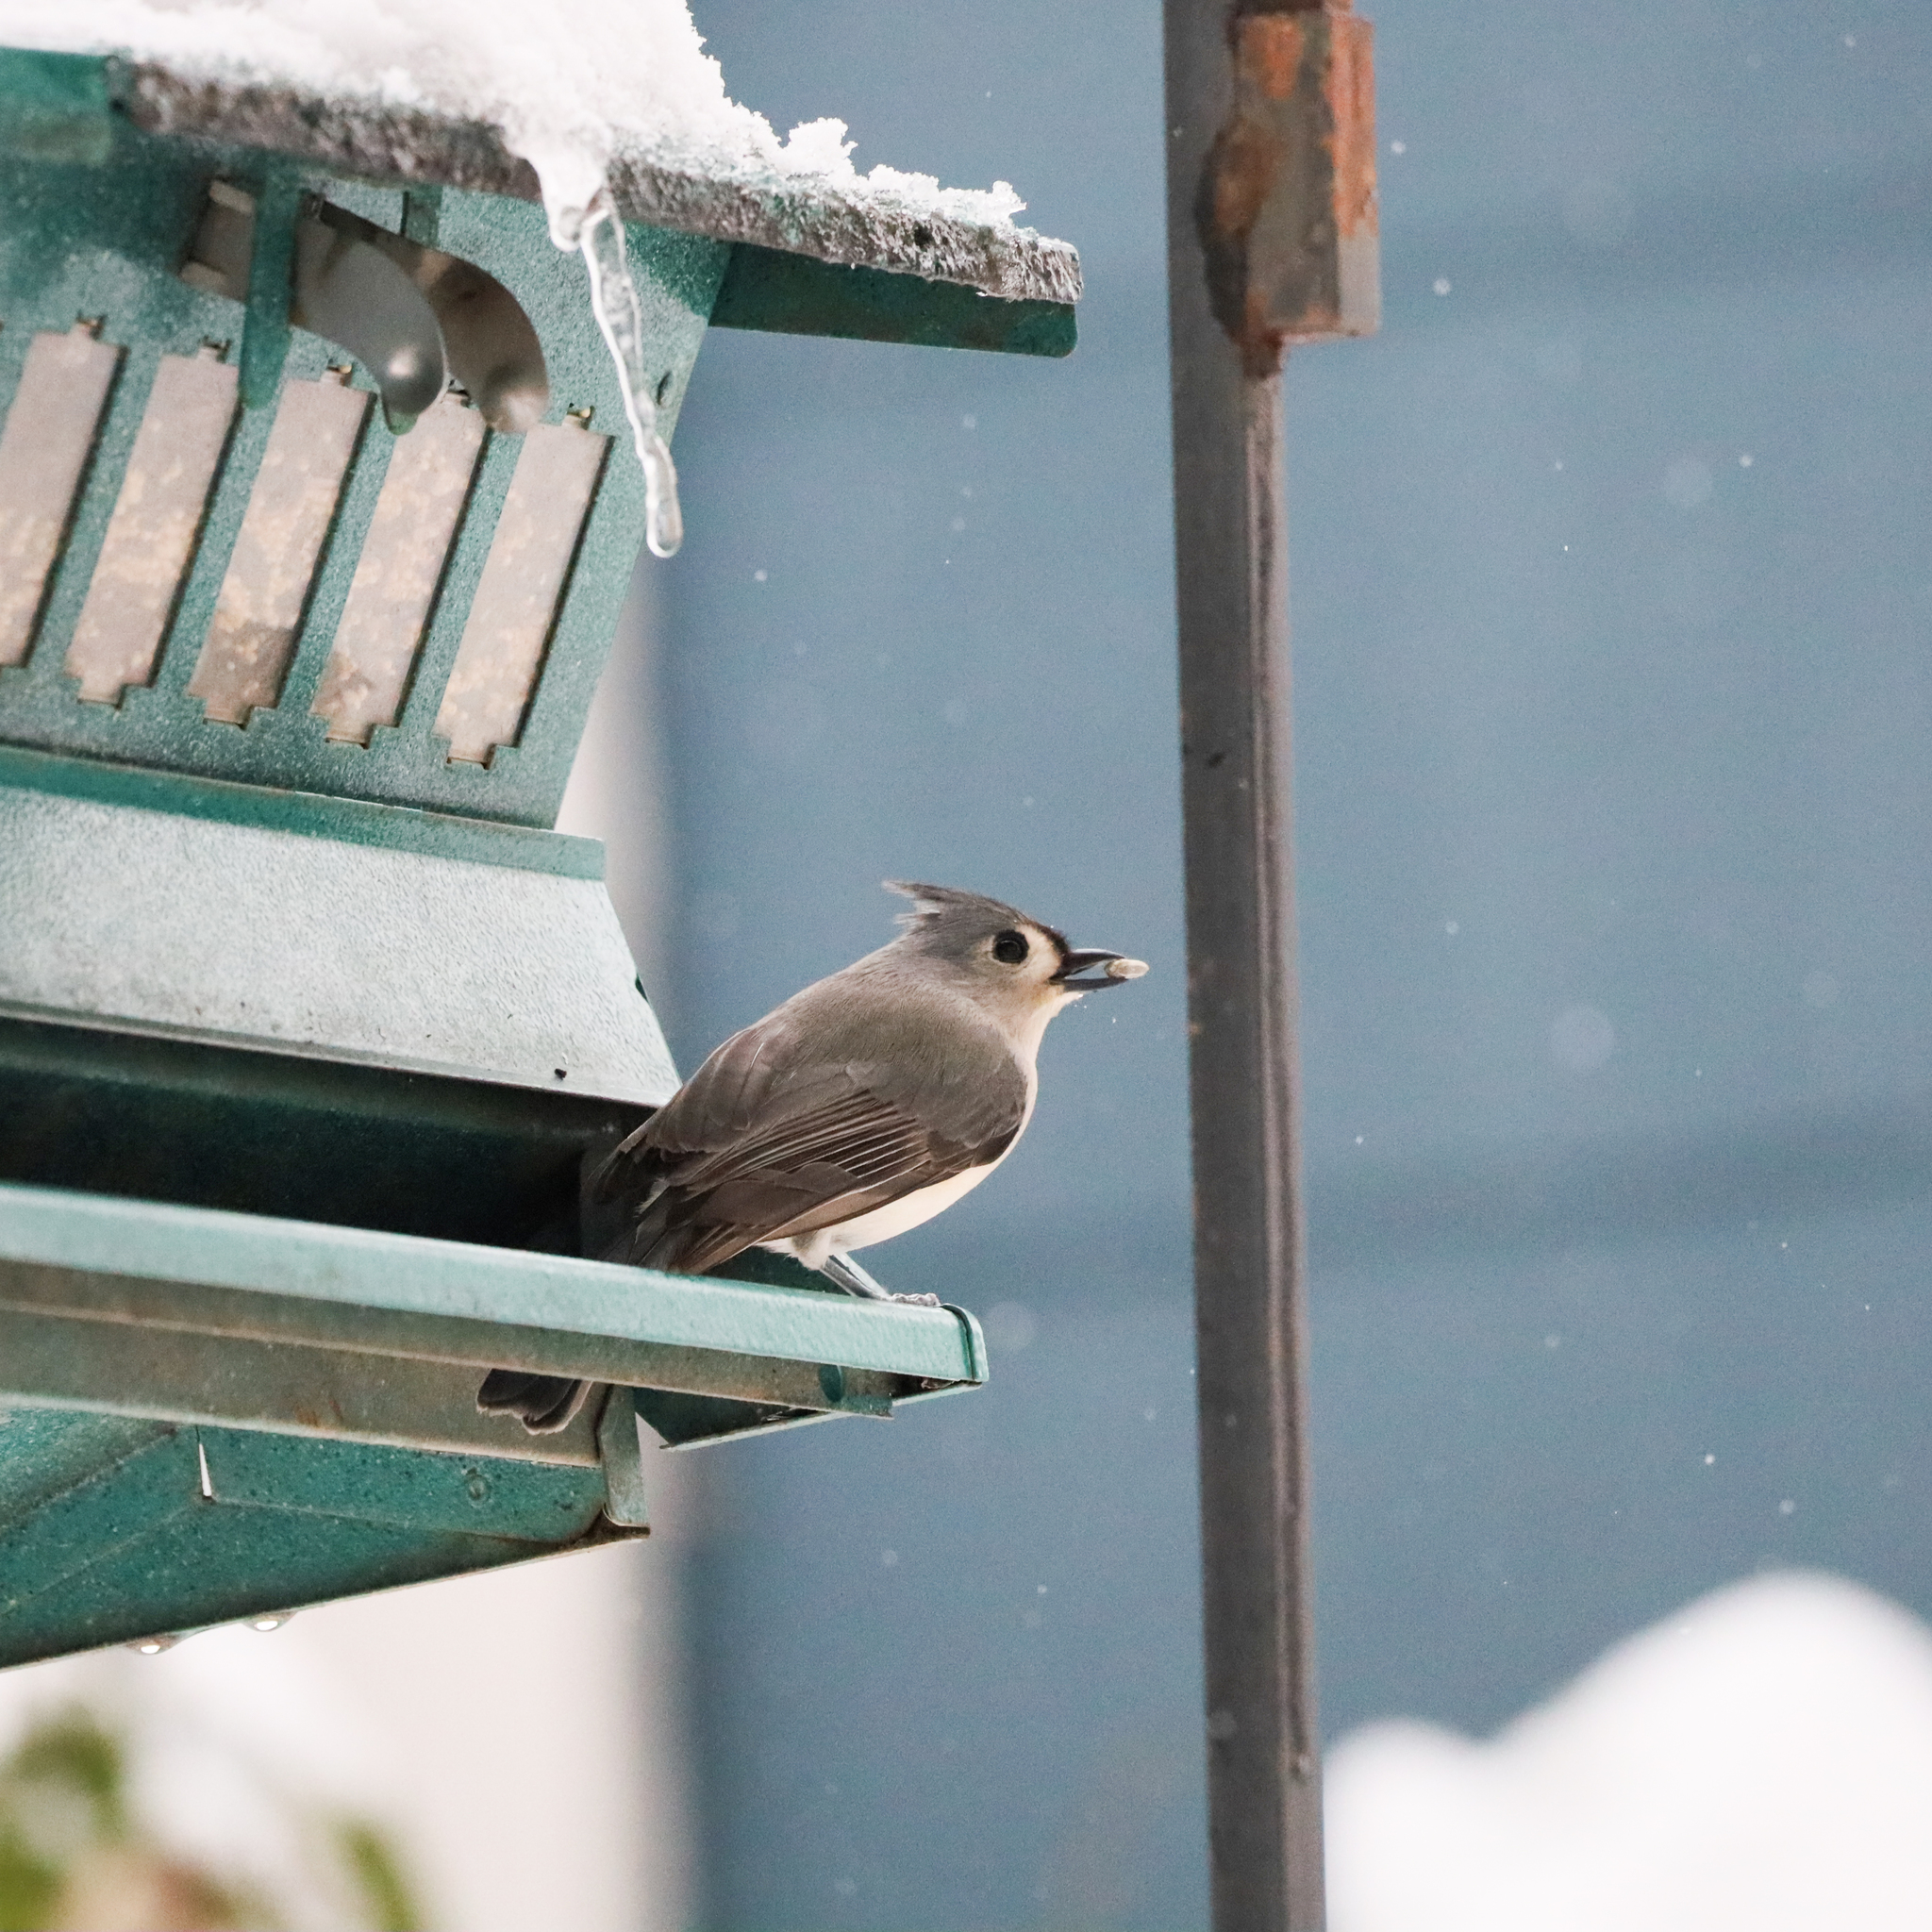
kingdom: Animalia
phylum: Chordata
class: Aves
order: Passeriformes
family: Paridae
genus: Baeolophus
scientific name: Baeolophus bicolor
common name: Tufted titmouse
